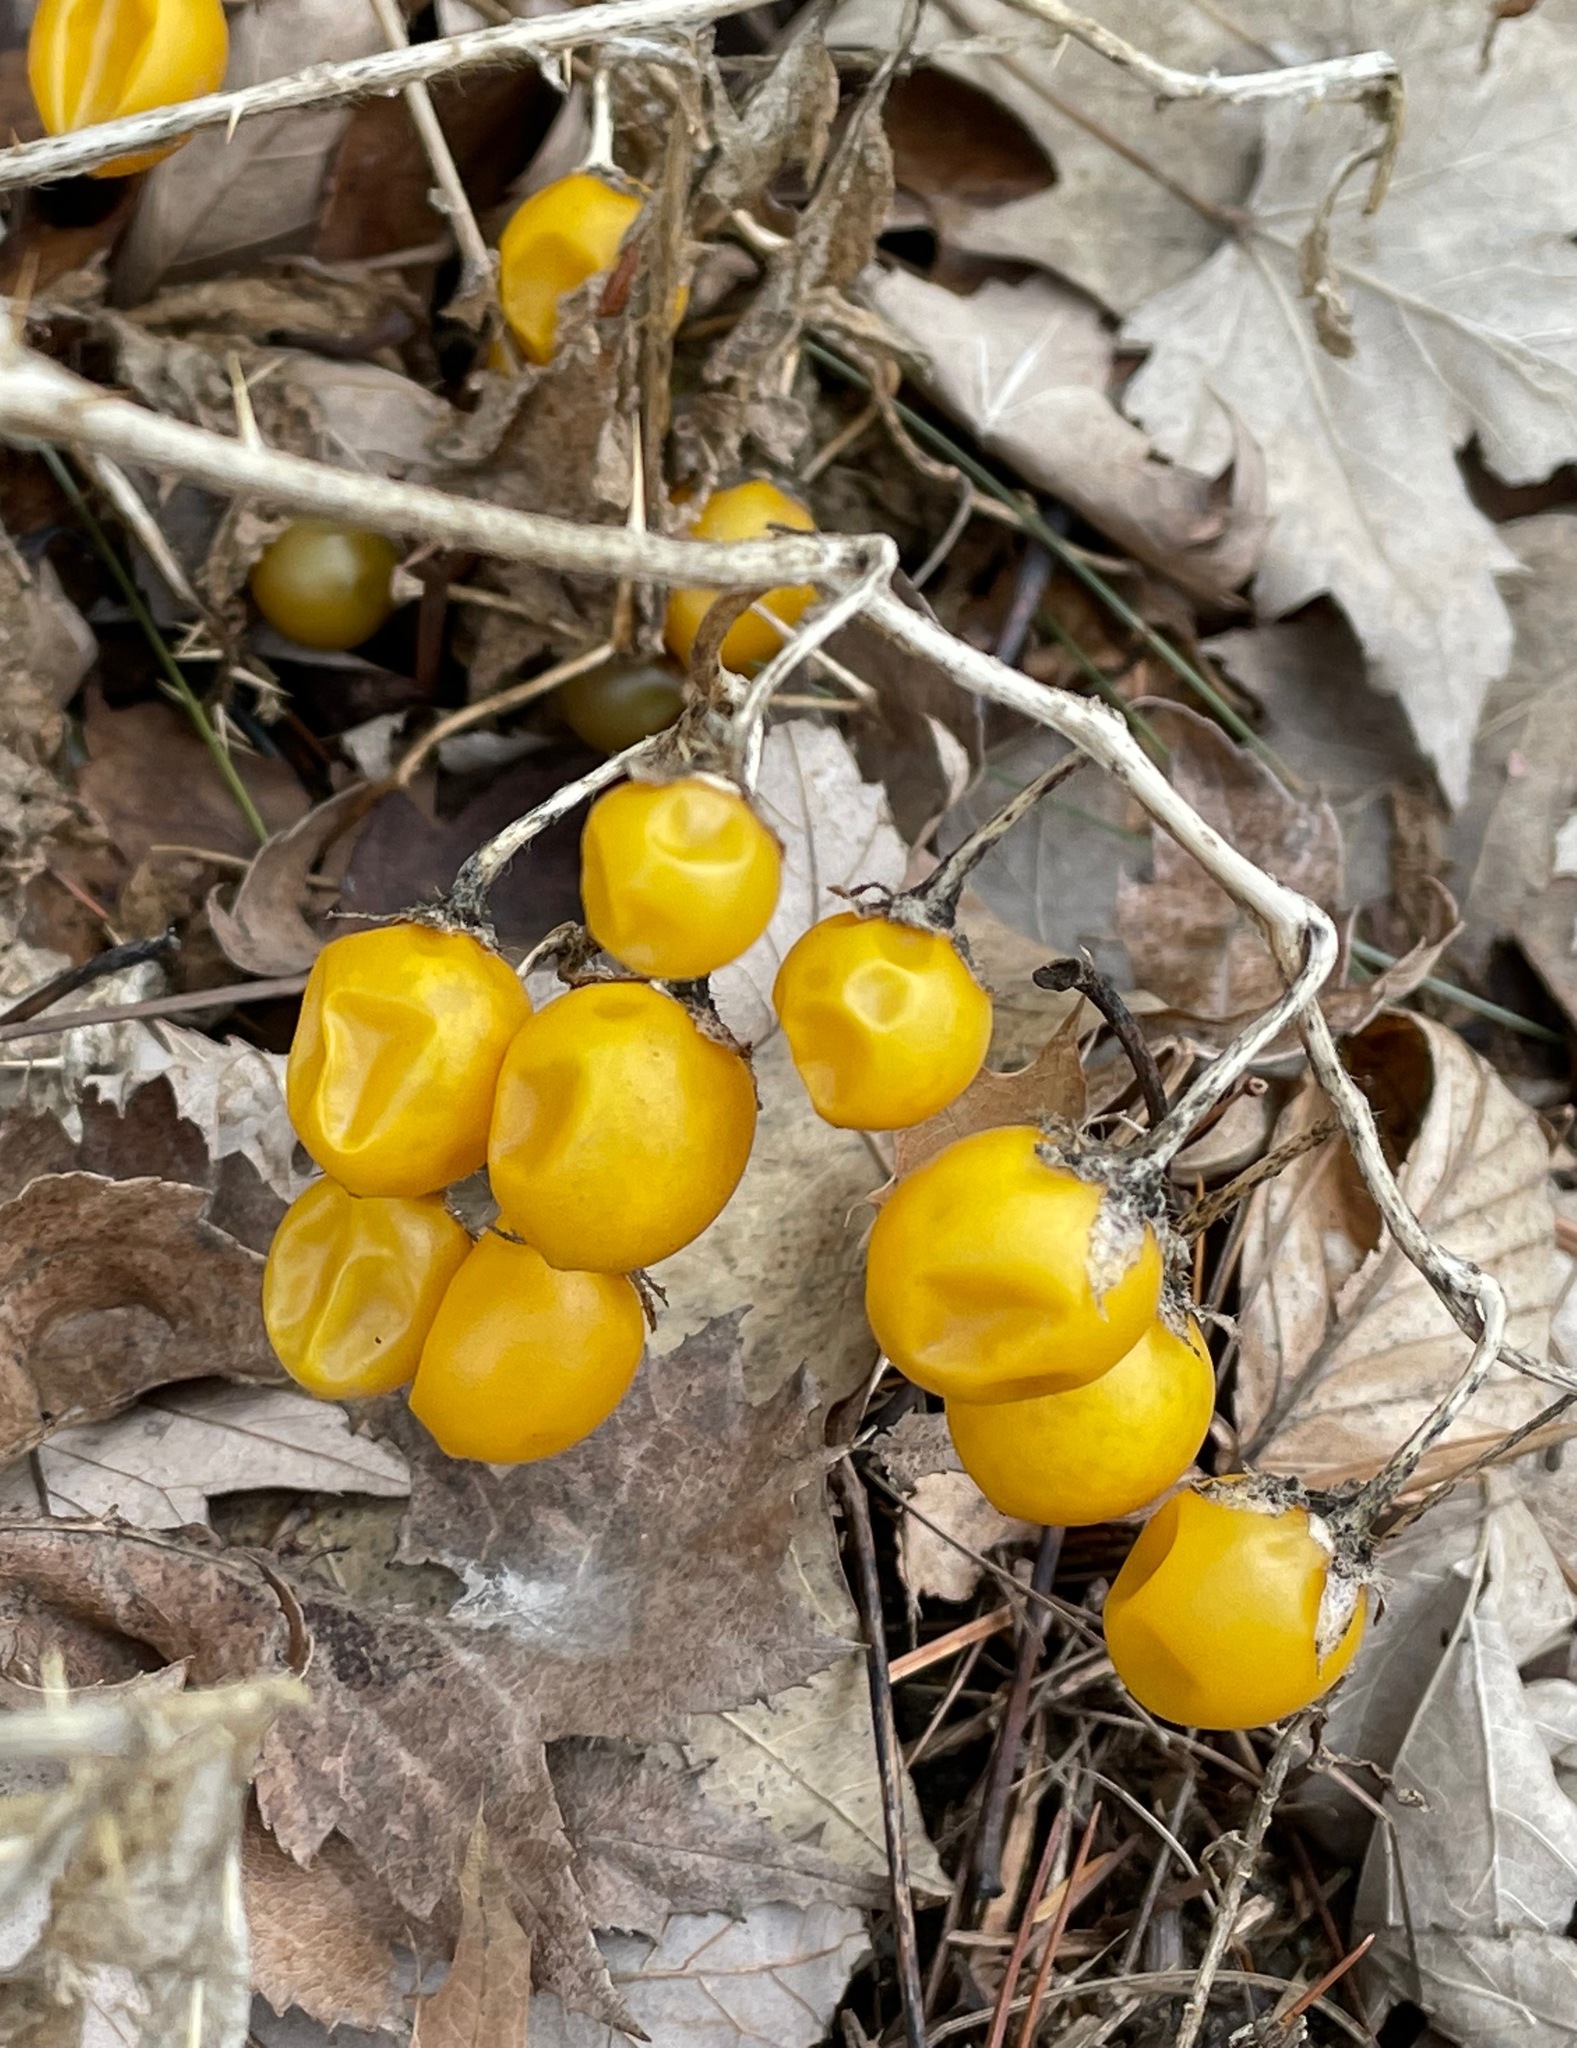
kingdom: Plantae
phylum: Tracheophyta
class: Magnoliopsida
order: Solanales
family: Solanaceae
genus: Solanum
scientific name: Solanum carolinense
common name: Horse-nettle
